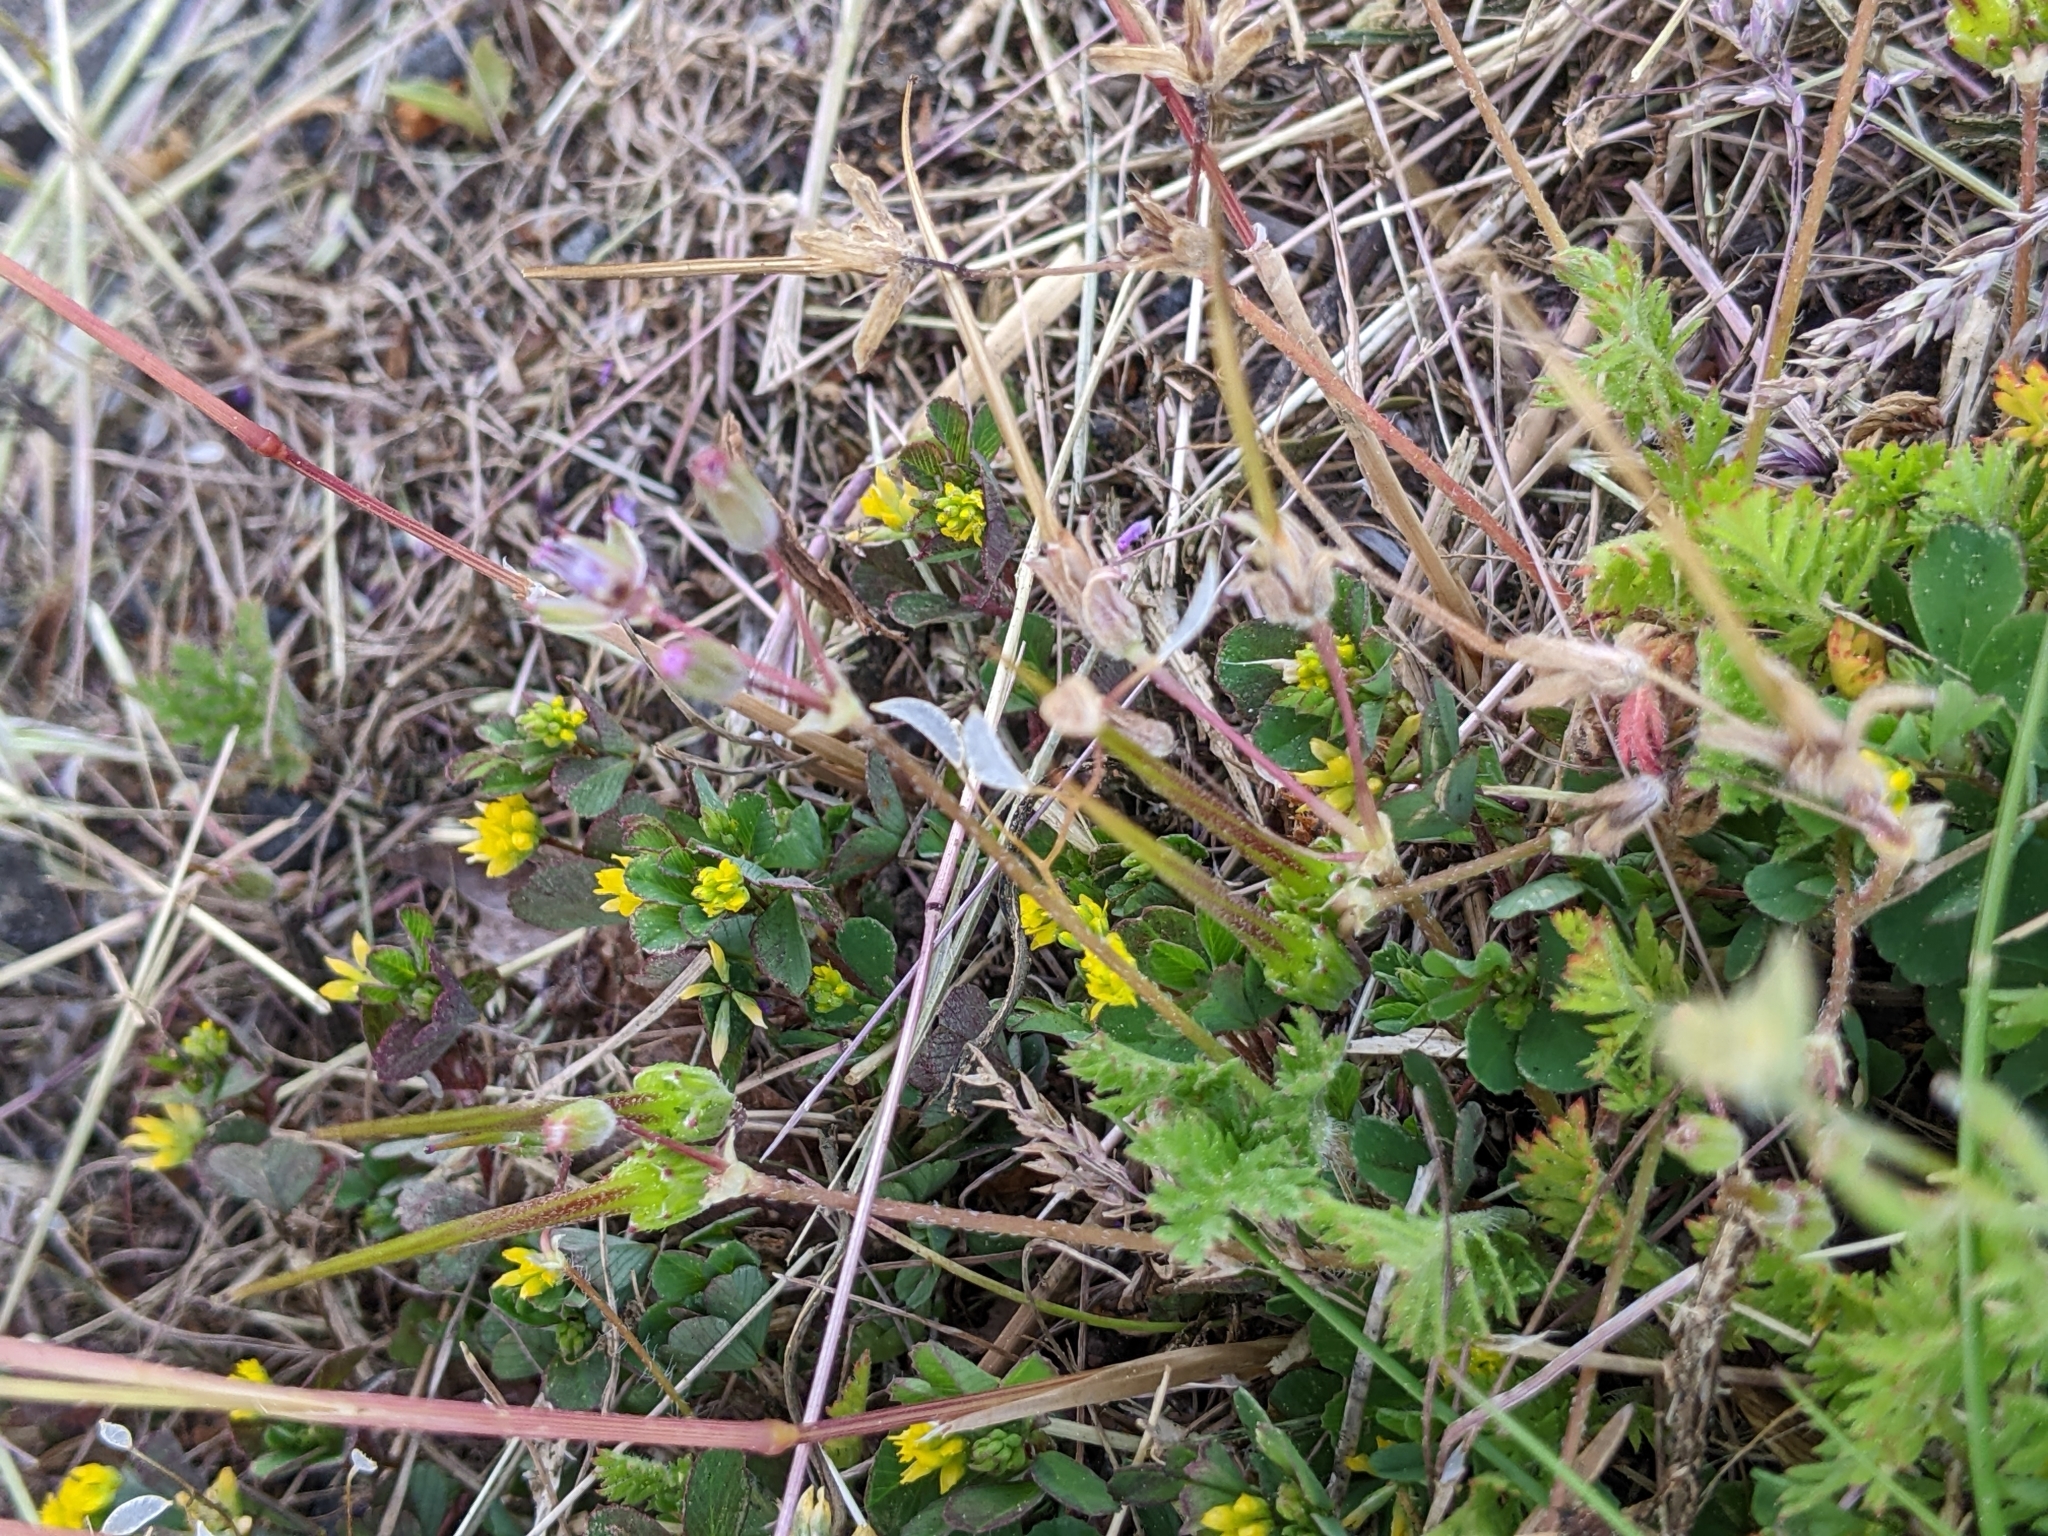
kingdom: Plantae
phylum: Tracheophyta
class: Magnoliopsida
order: Geraniales
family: Geraniaceae
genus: Erodium
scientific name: Erodium cicutarium
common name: Common stork's-bill
